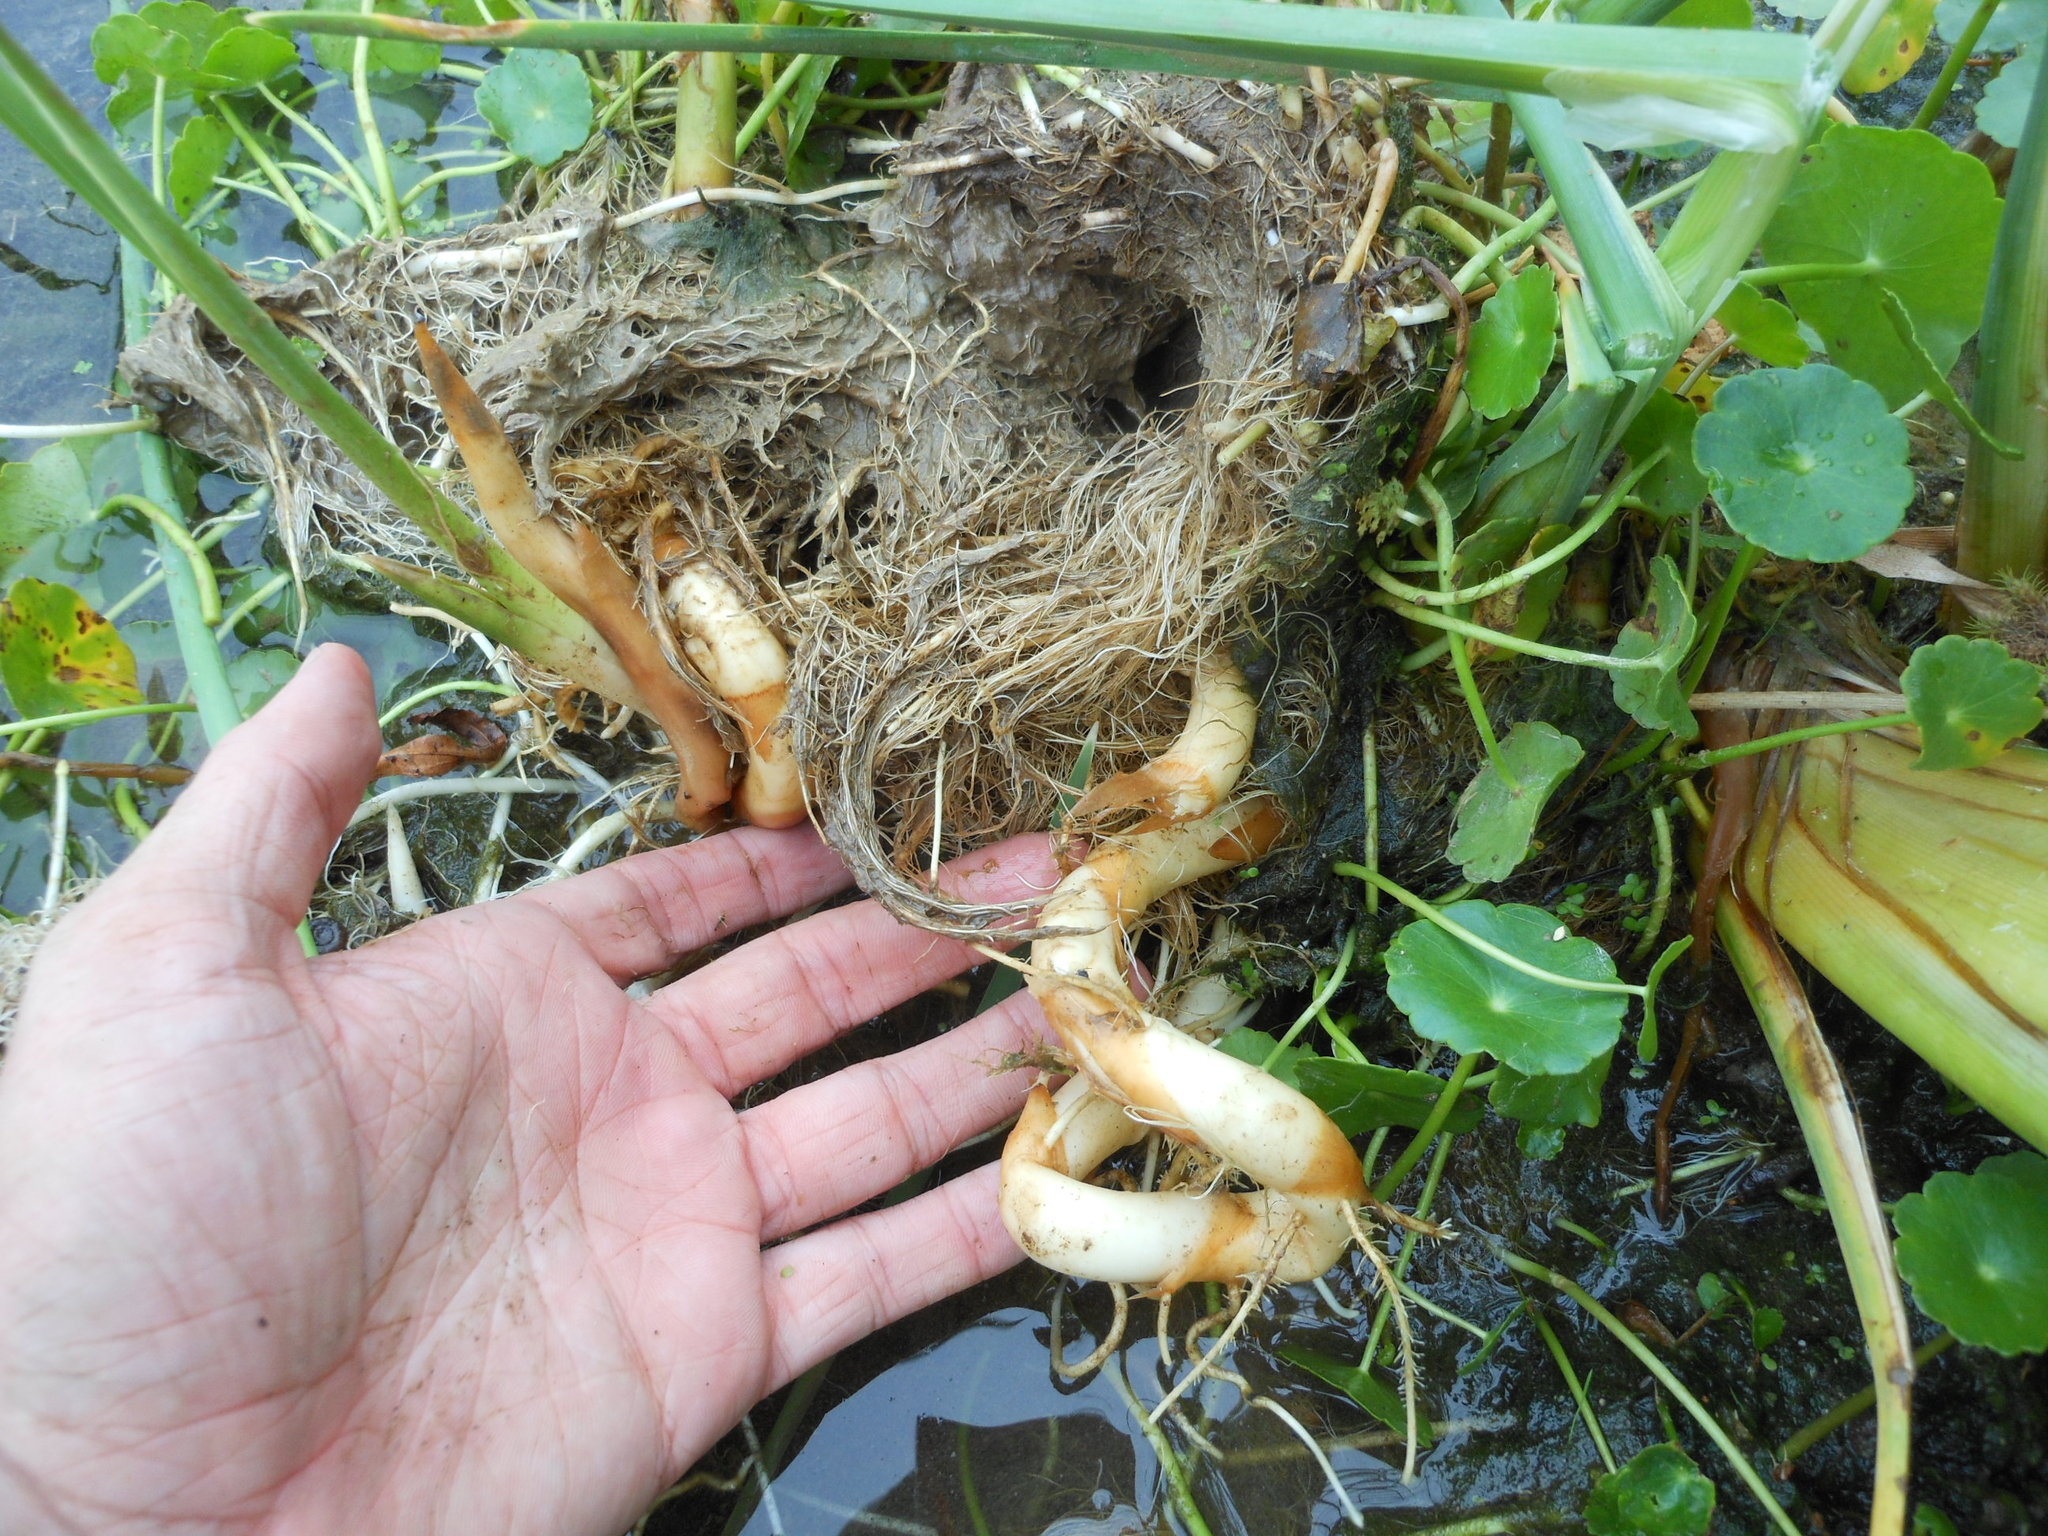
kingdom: Plantae
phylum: Tracheophyta
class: Liliopsida
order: Poales
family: Typhaceae
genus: Typha
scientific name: Typha domingensis
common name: Southern cattail
